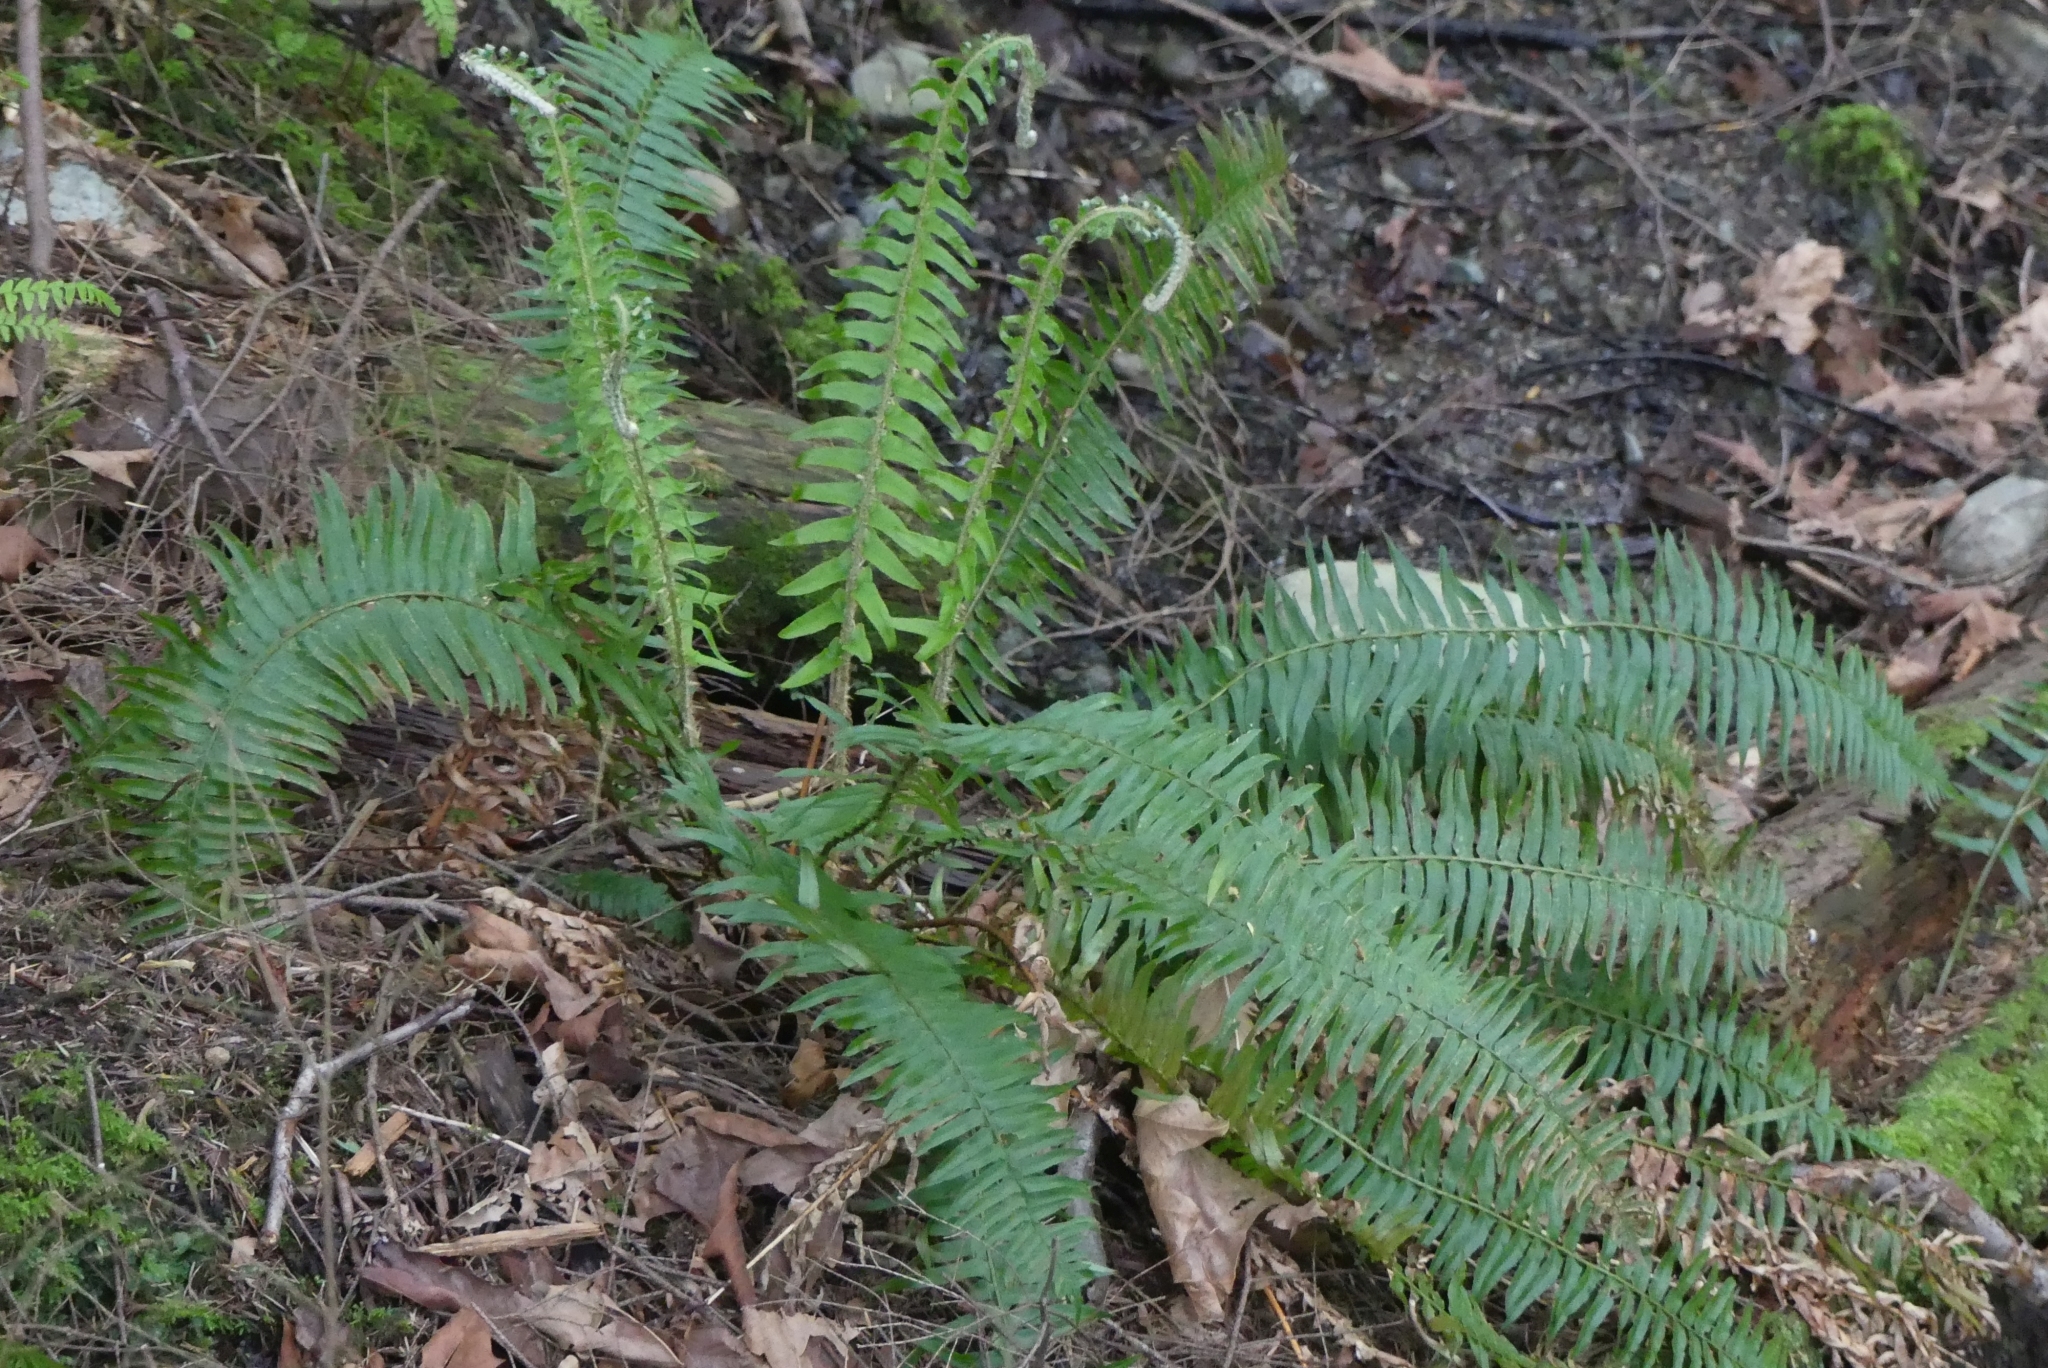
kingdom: Plantae
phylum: Tracheophyta
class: Polypodiopsida
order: Polypodiales
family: Dryopteridaceae
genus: Polystichum
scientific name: Polystichum munitum
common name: Western sword-fern
